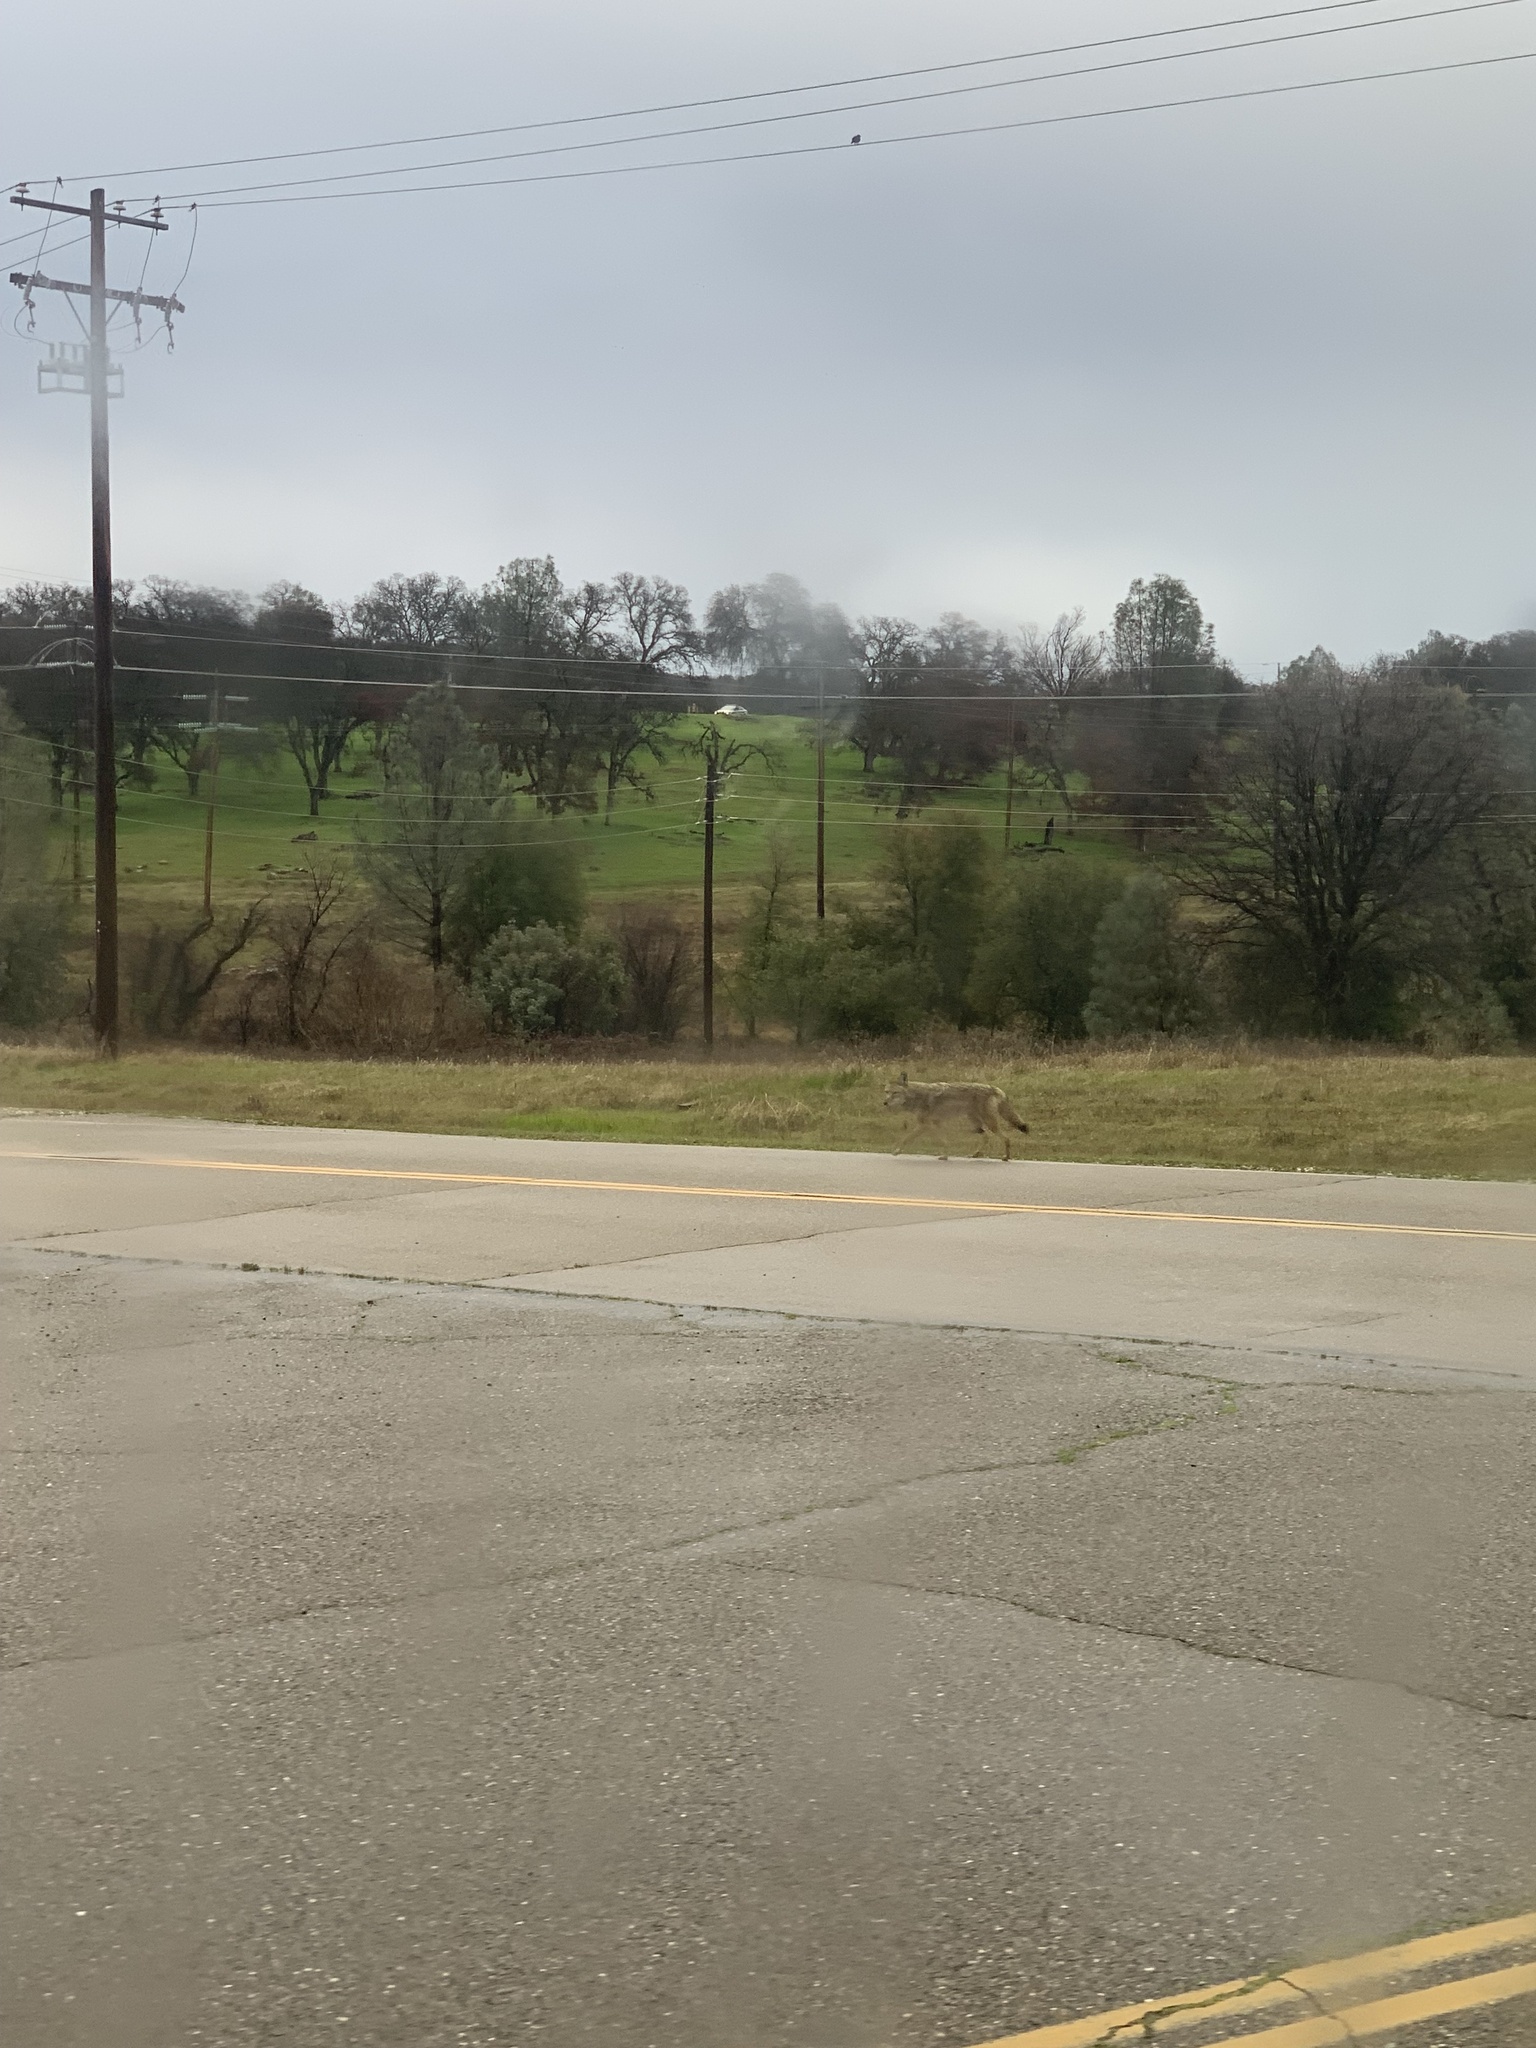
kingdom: Animalia
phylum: Chordata
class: Mammalia
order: Carnivora
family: Canidae
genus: Canis
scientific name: Canis latrans
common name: Coyote
